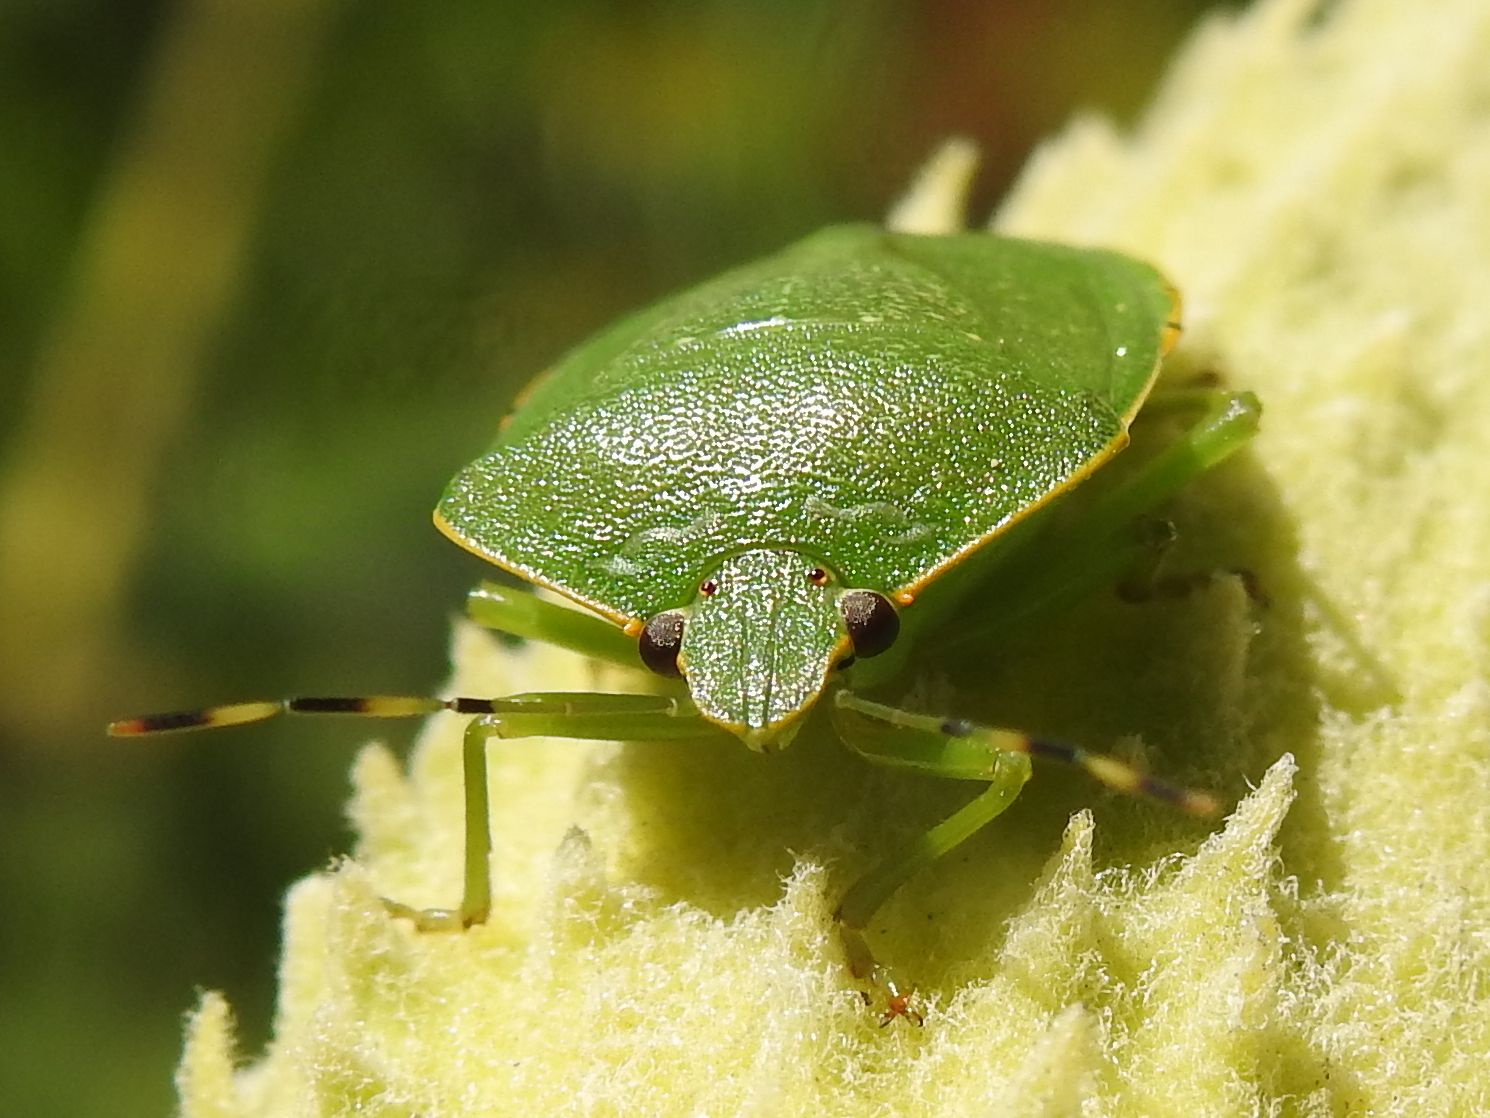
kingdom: Animalia
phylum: Arthropoda
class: Insecta
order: Hemiptera
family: Pentatomidae
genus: Chinavia
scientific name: Chinavia hilaris
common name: Green stink bug
